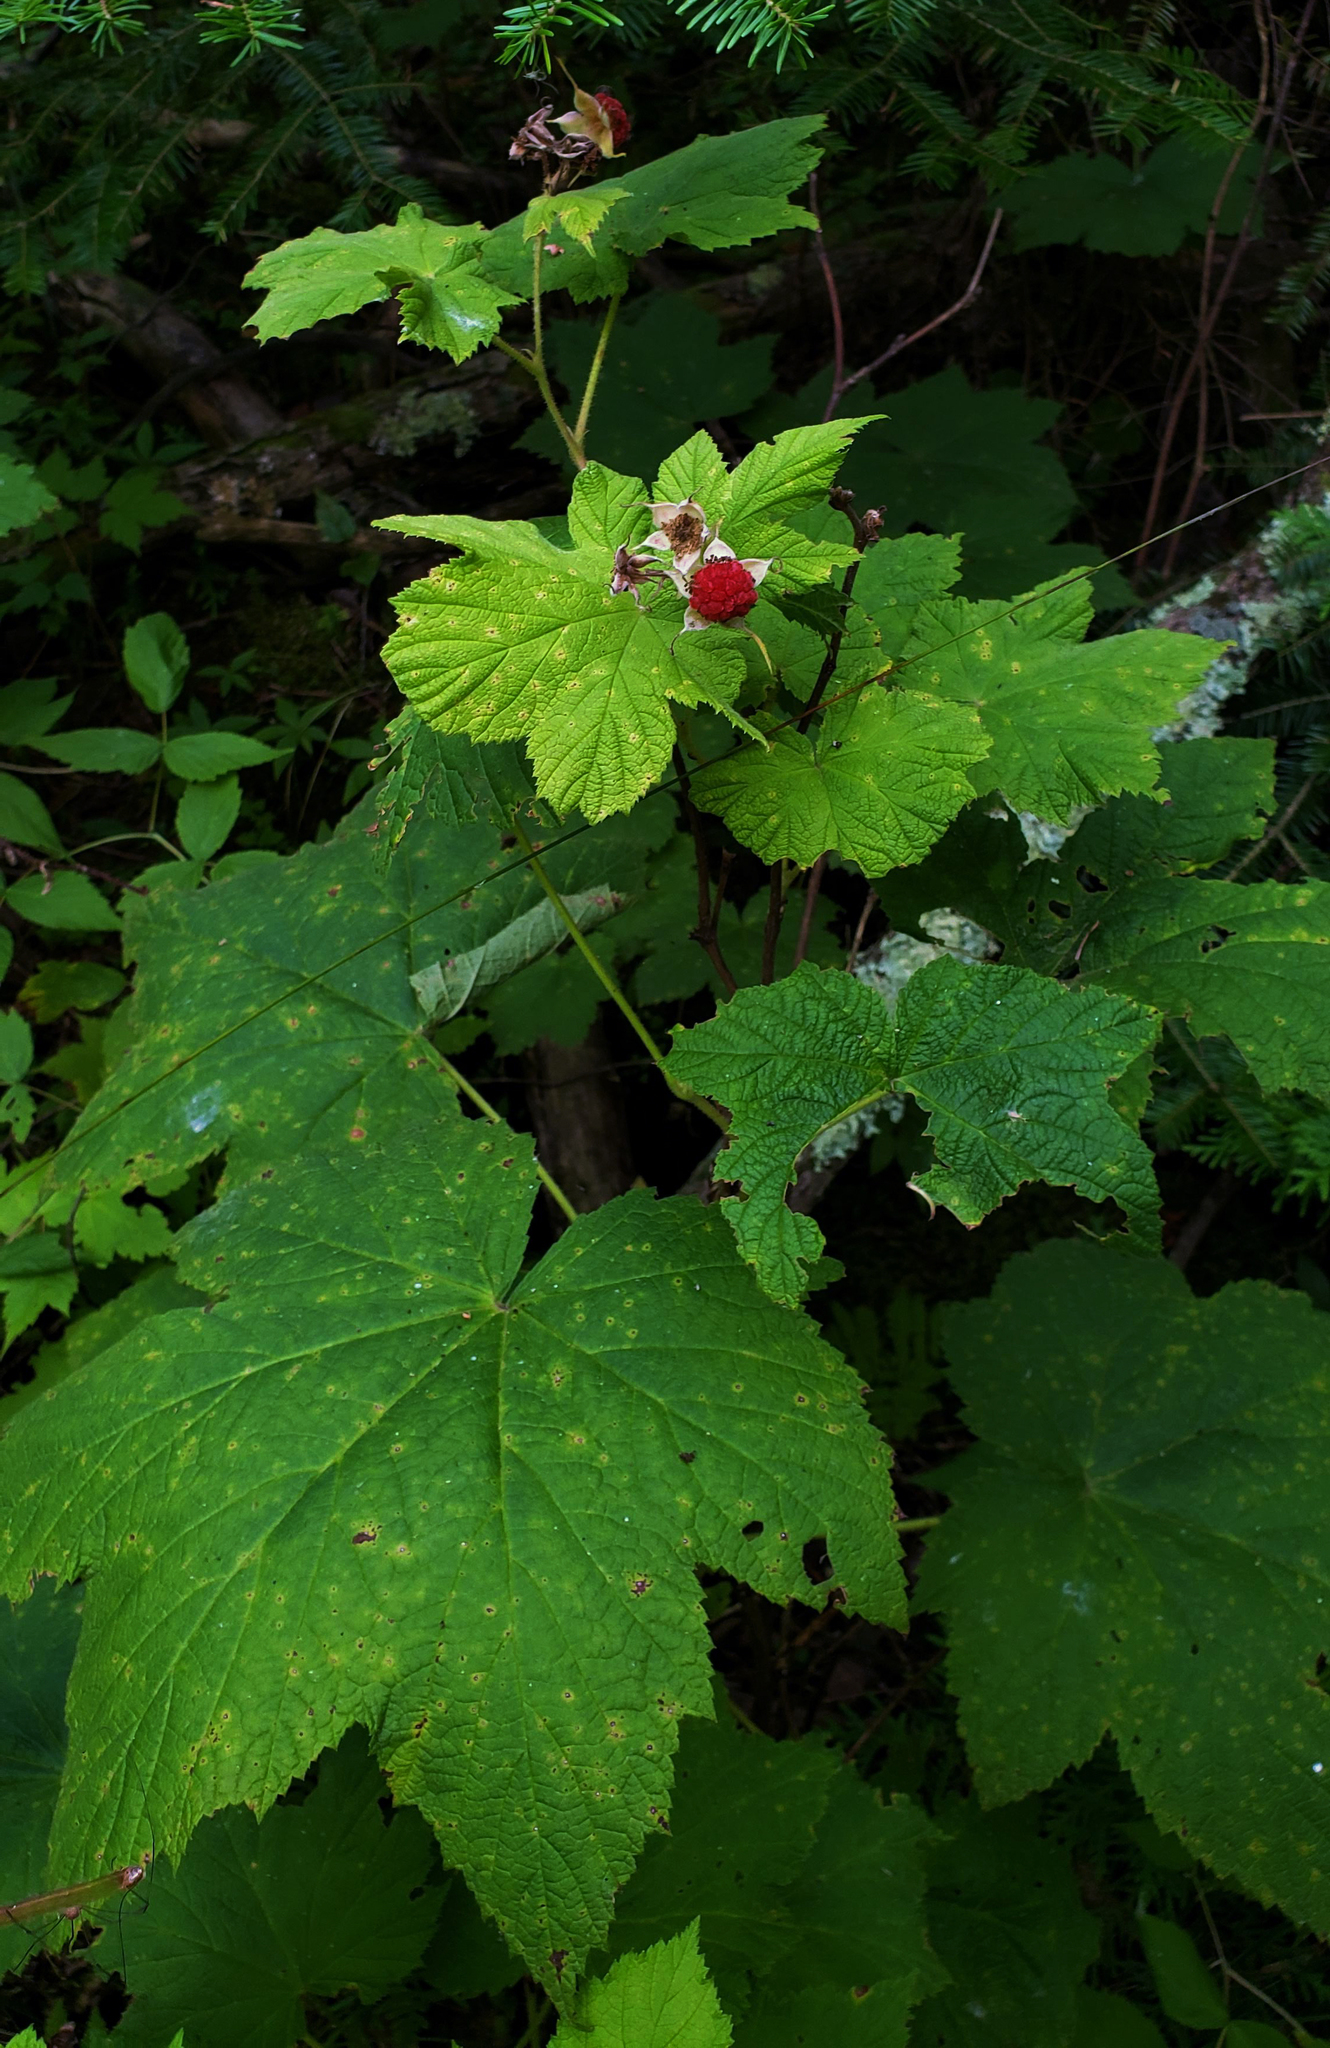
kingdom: Plantae
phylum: Tracheophyta
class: Magnoliopsida
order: Rosales
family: Rosaceae
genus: Rubus
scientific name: Rubus parviflorus
